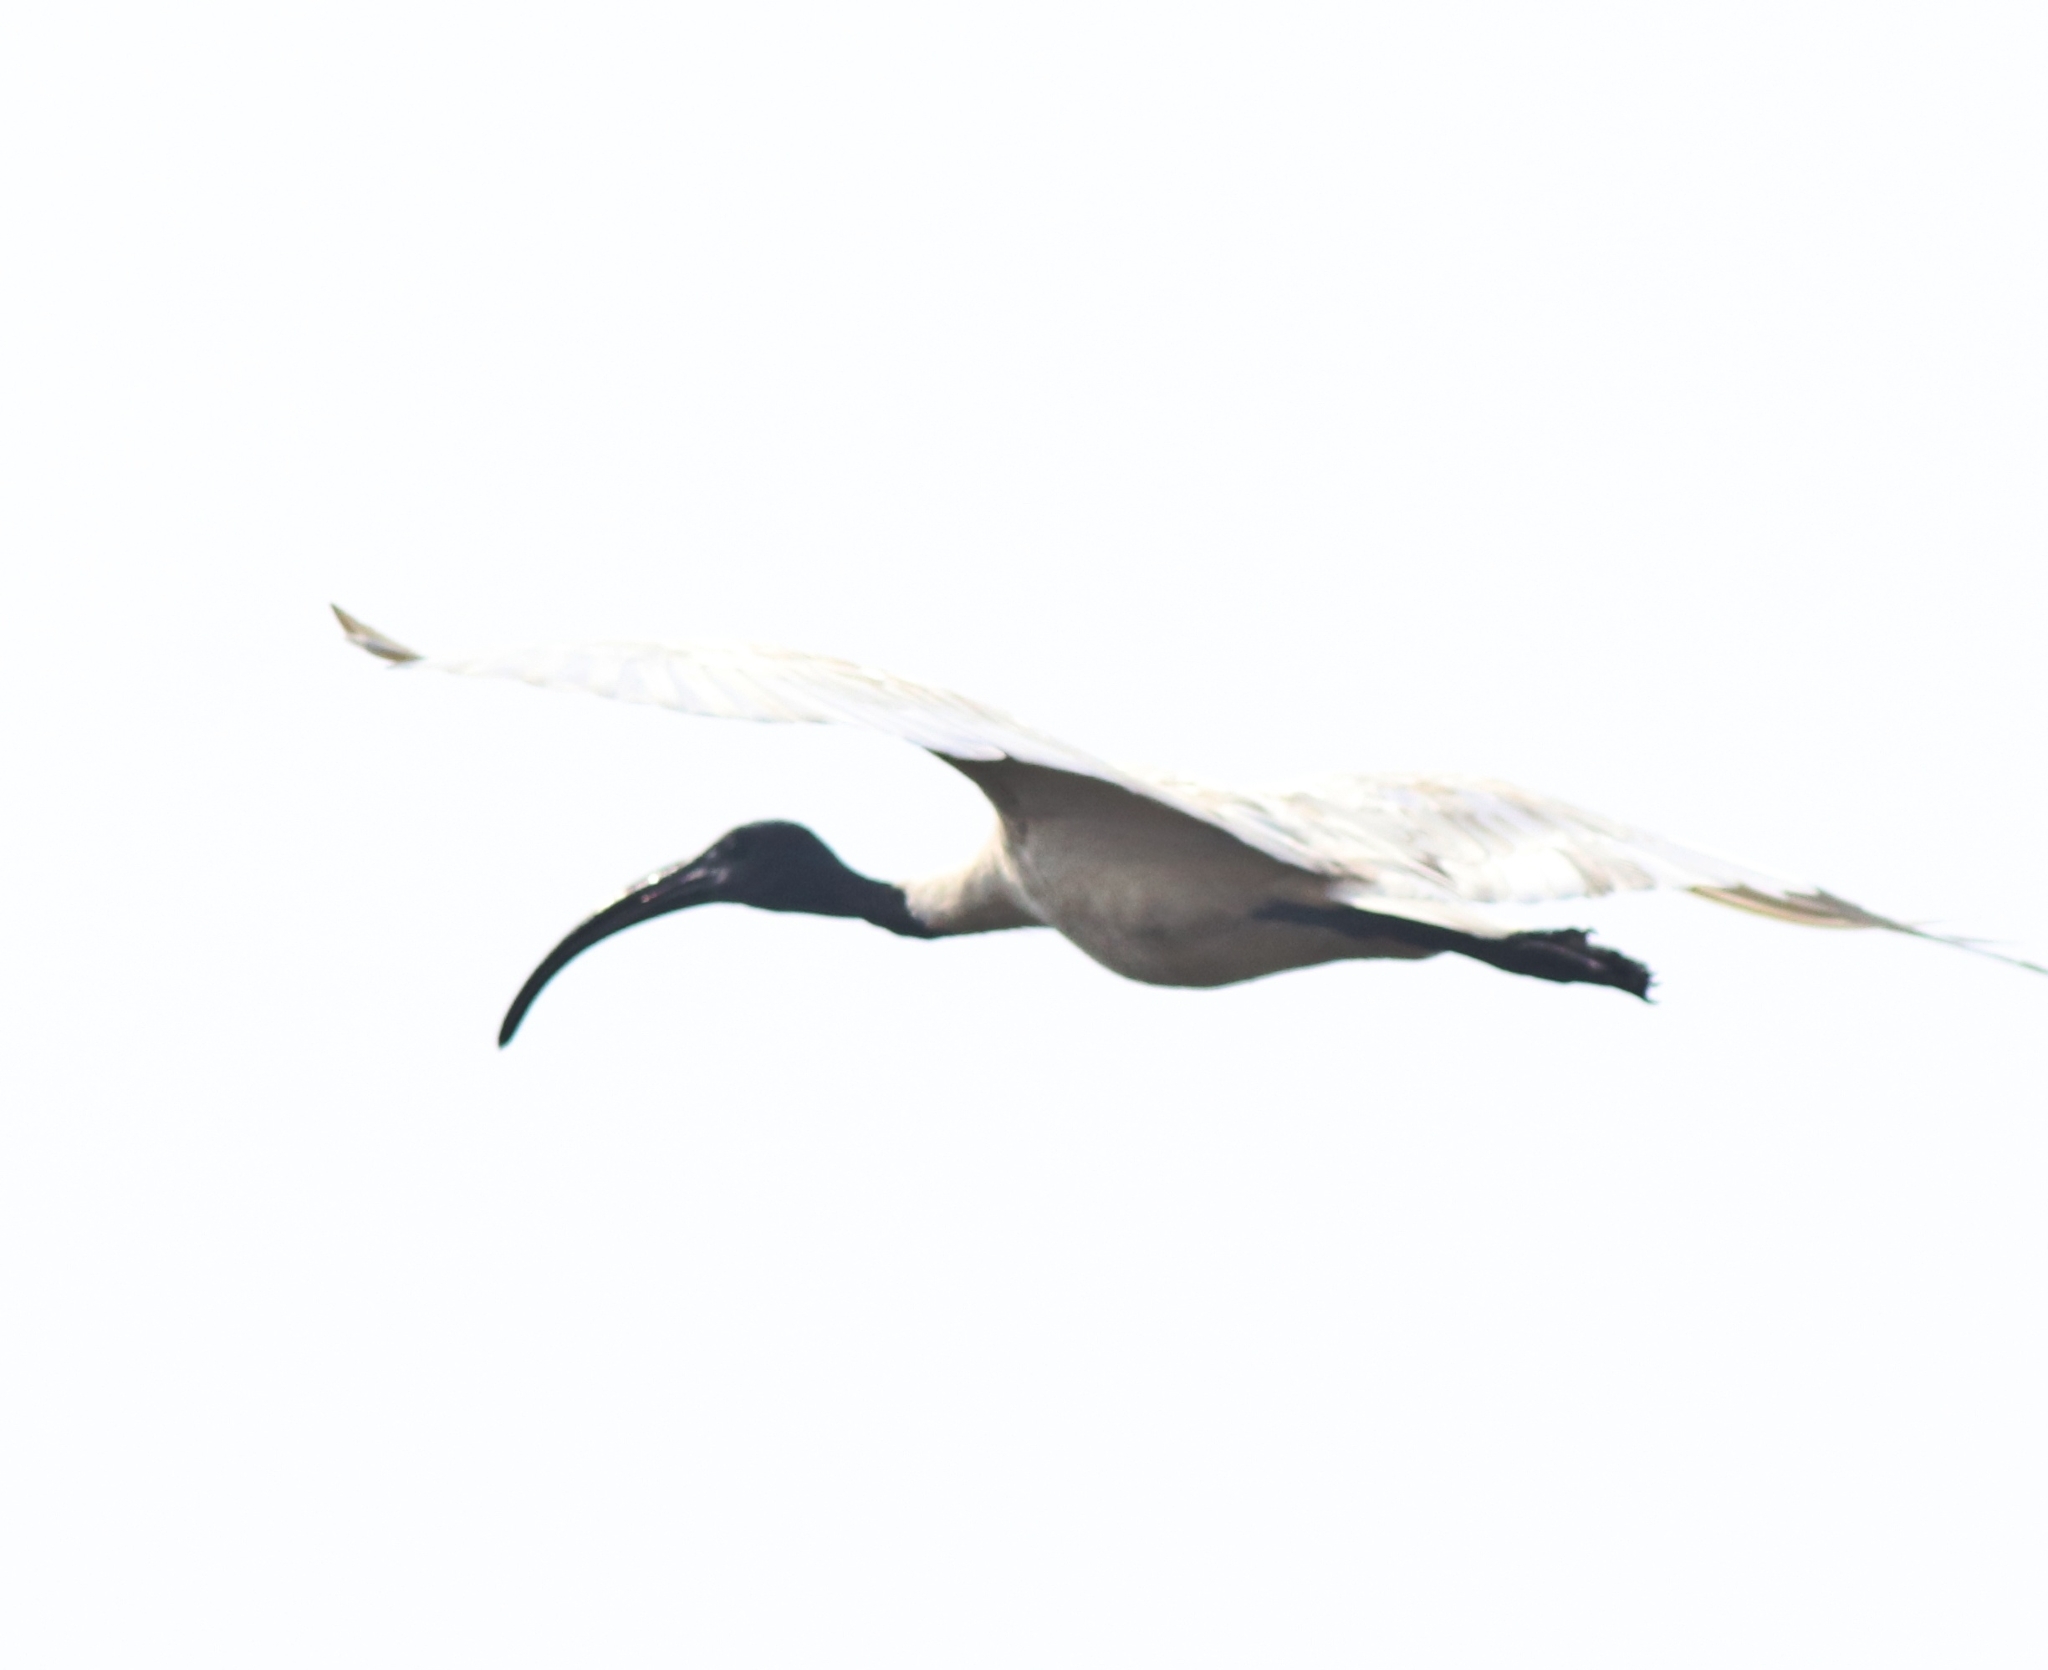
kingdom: Animalia
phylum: Chordata
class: Aves
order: Pelecaniformes
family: Threskiornithidae
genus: Threskiornis
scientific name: Threskiornis melanocephalus
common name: Black-headed ibis
